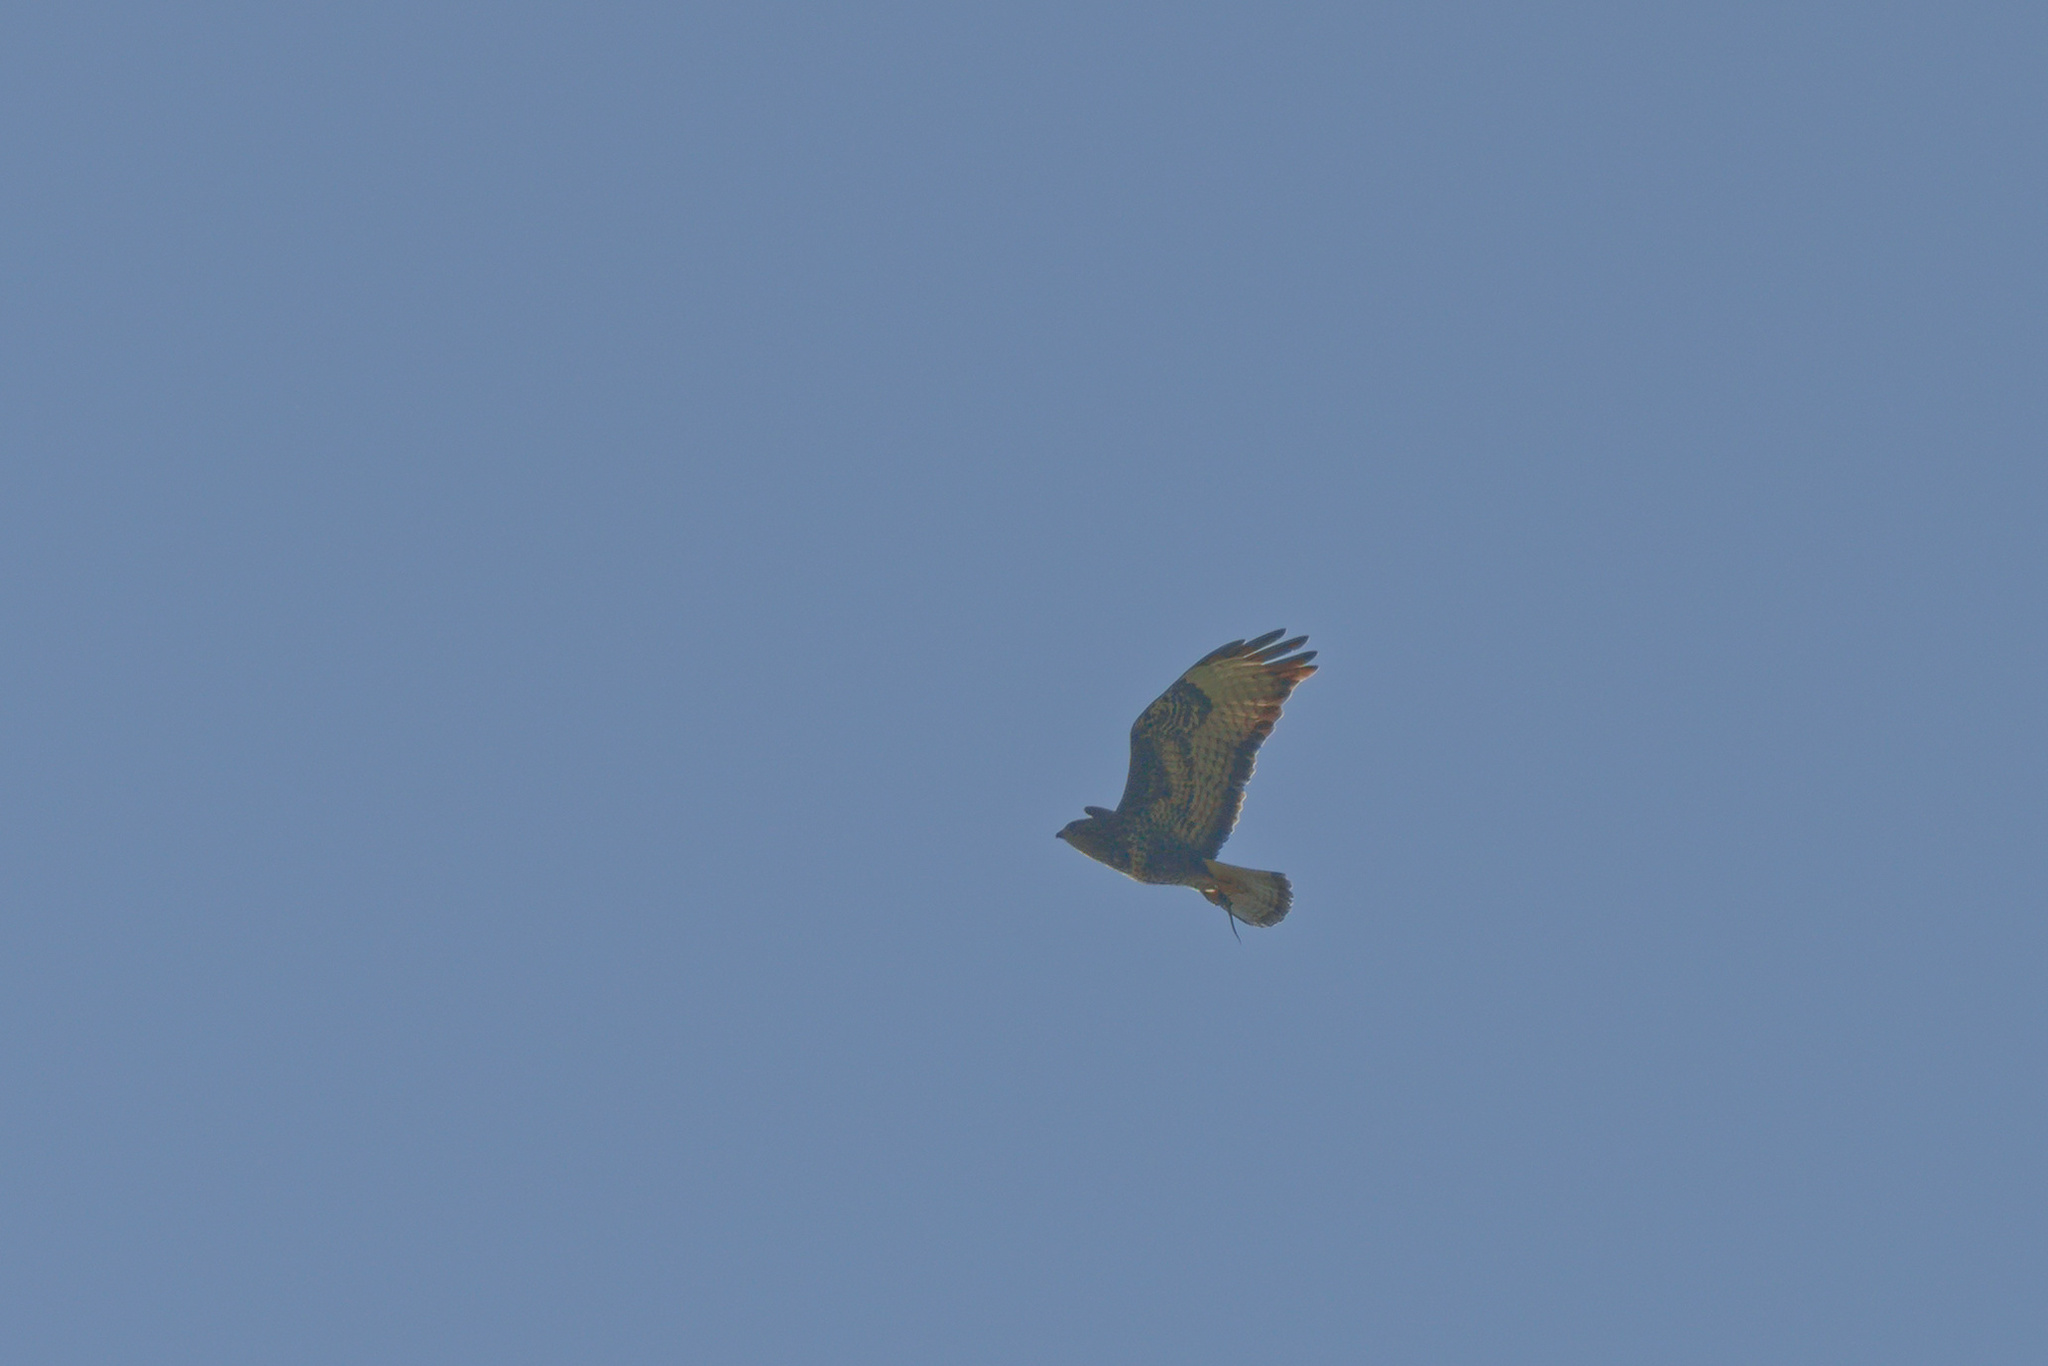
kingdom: Animalia
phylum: Chordata
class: Aves
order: Accipitriformes
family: Accipitridae
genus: Buteo
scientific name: Buteo buteo
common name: Common buzzard
